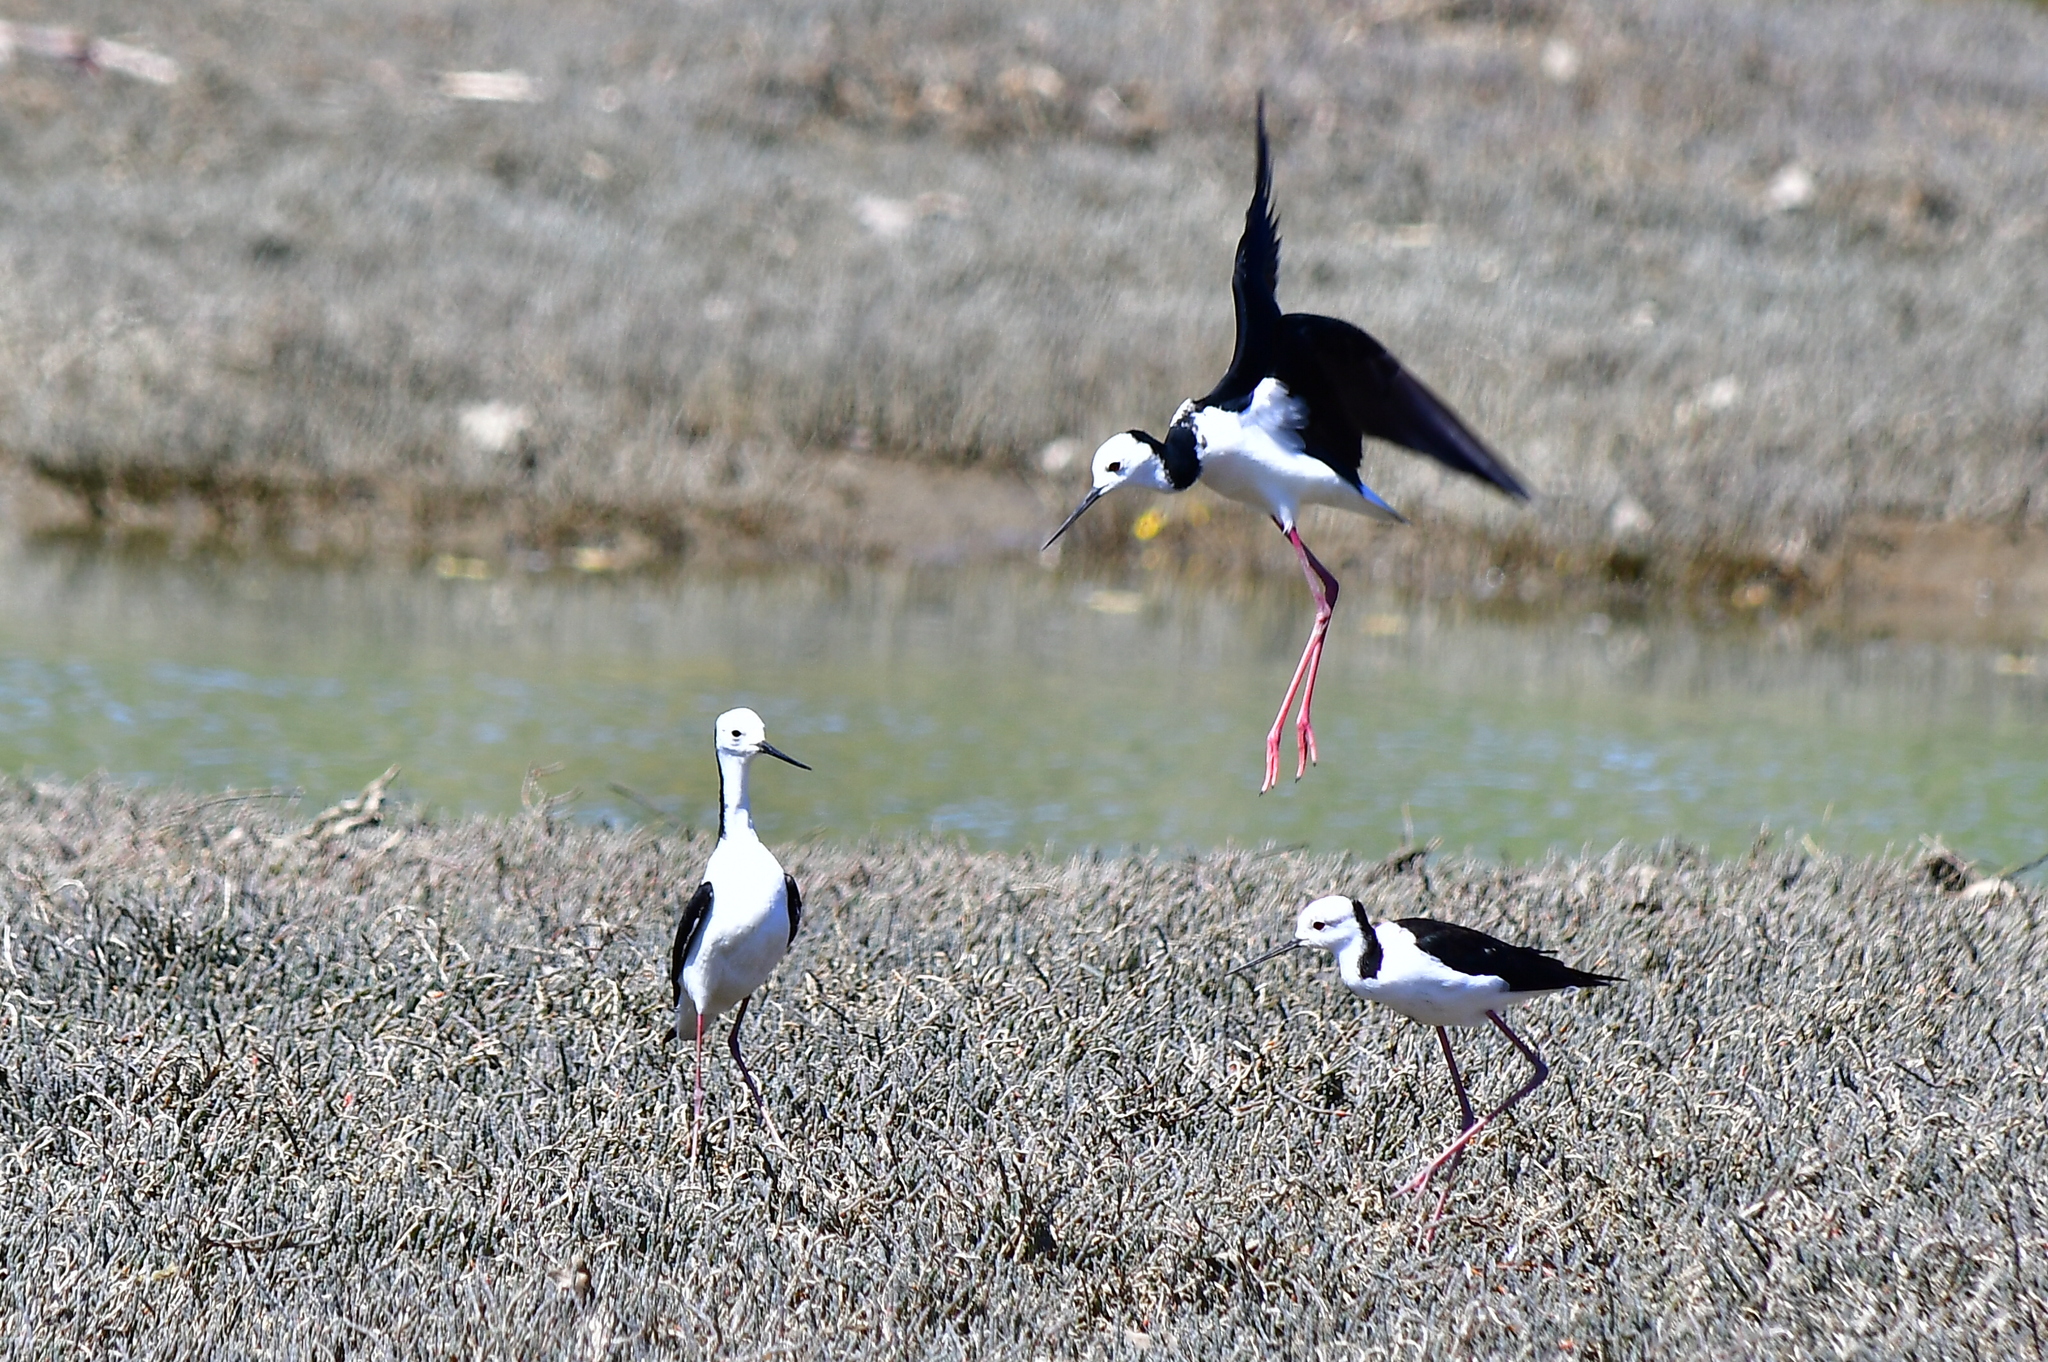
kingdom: Animalia
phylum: Chordata
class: Aves
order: Charadriiformes
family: Recurvirostridae
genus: Himantopus
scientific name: Himantopus leucocephalus
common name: White-headed stilt
